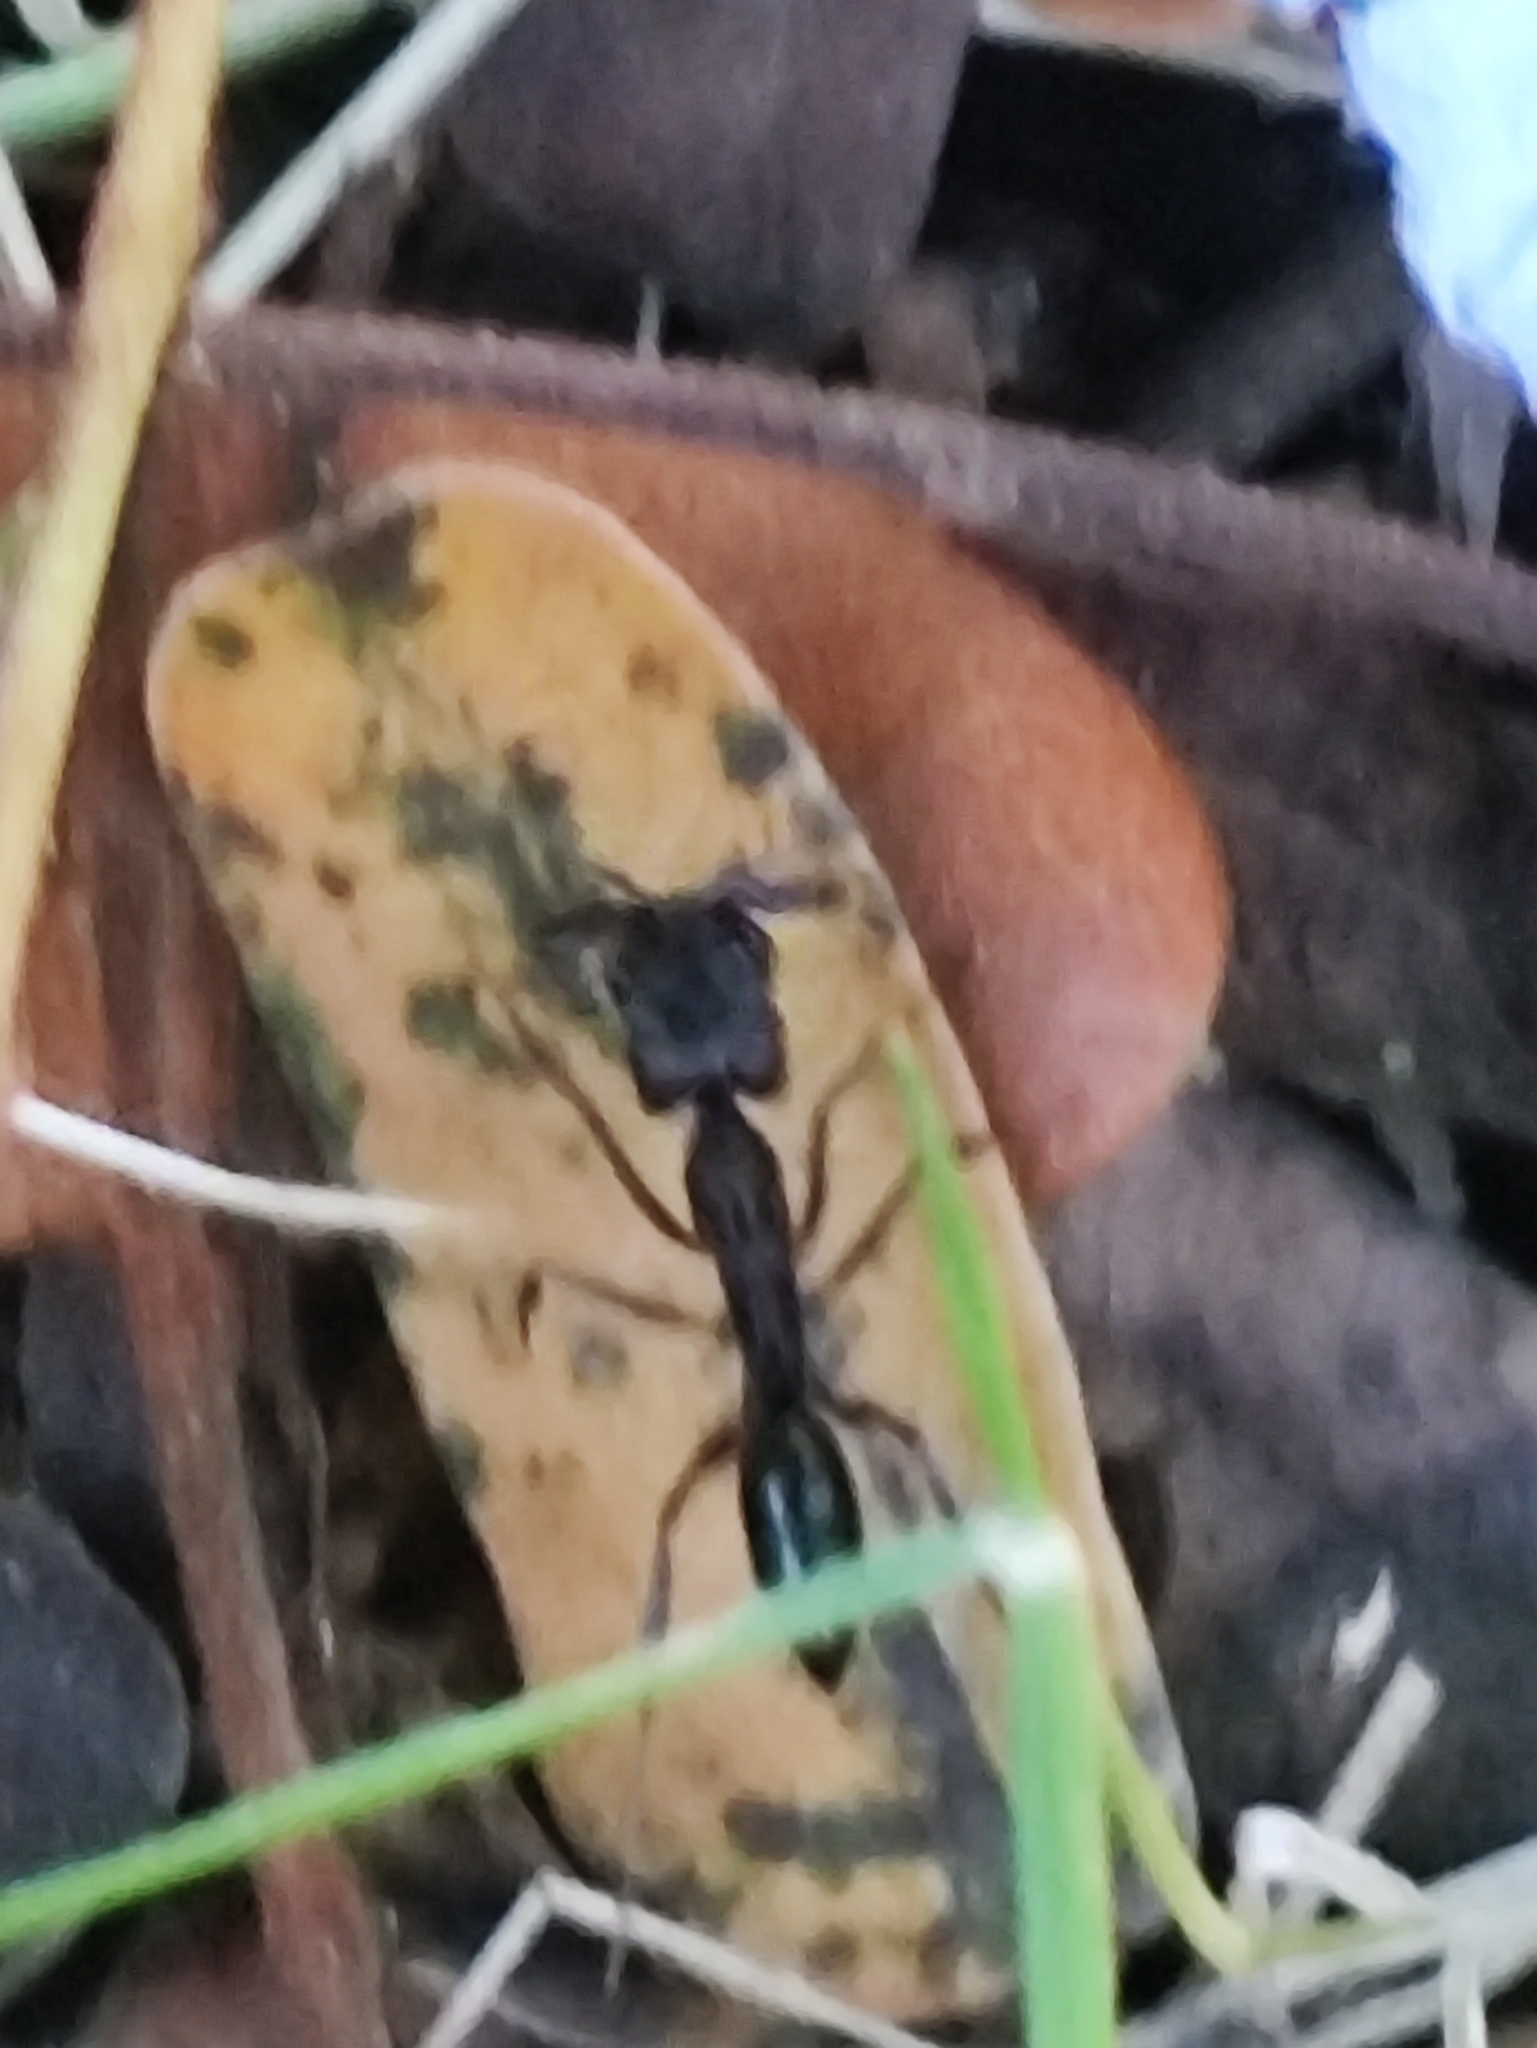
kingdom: Animalia
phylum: Arthropoda
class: Insecta
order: Hymenoptera
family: Formicidae
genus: Odontomachus
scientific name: Odontomachus simillimus
